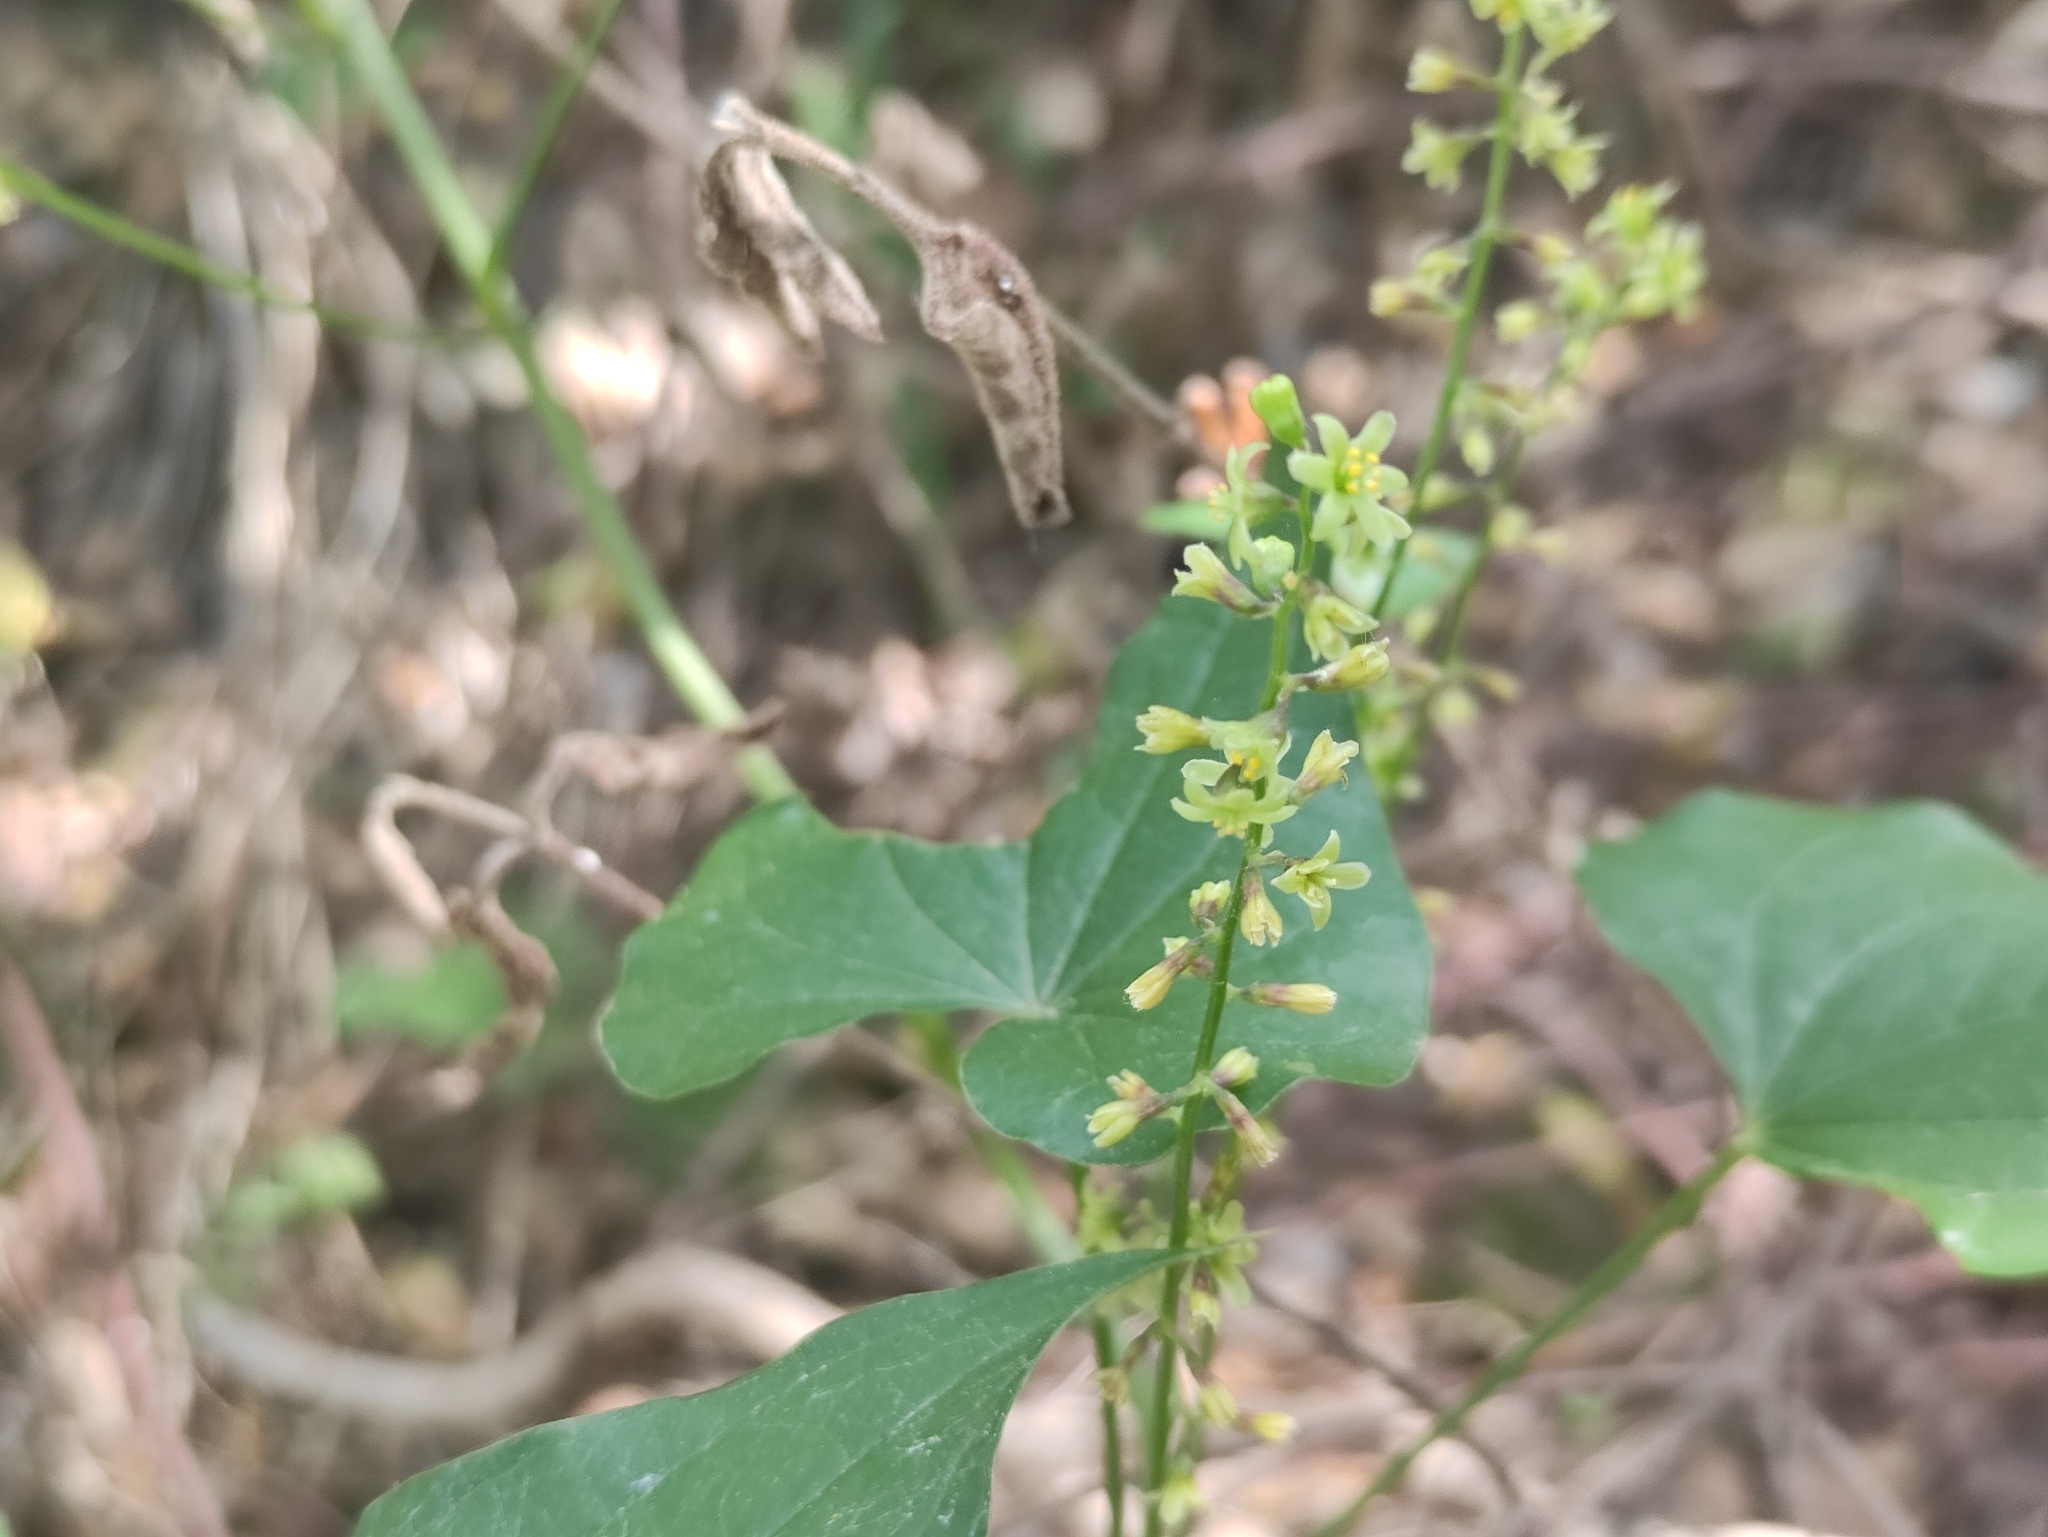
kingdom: Plantae
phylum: Tracheophyta
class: Liliopsida
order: Dioscoreales
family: Dioscoreaceae
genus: Dioscorea
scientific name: Dioscorea communis
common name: Black-bindweed
